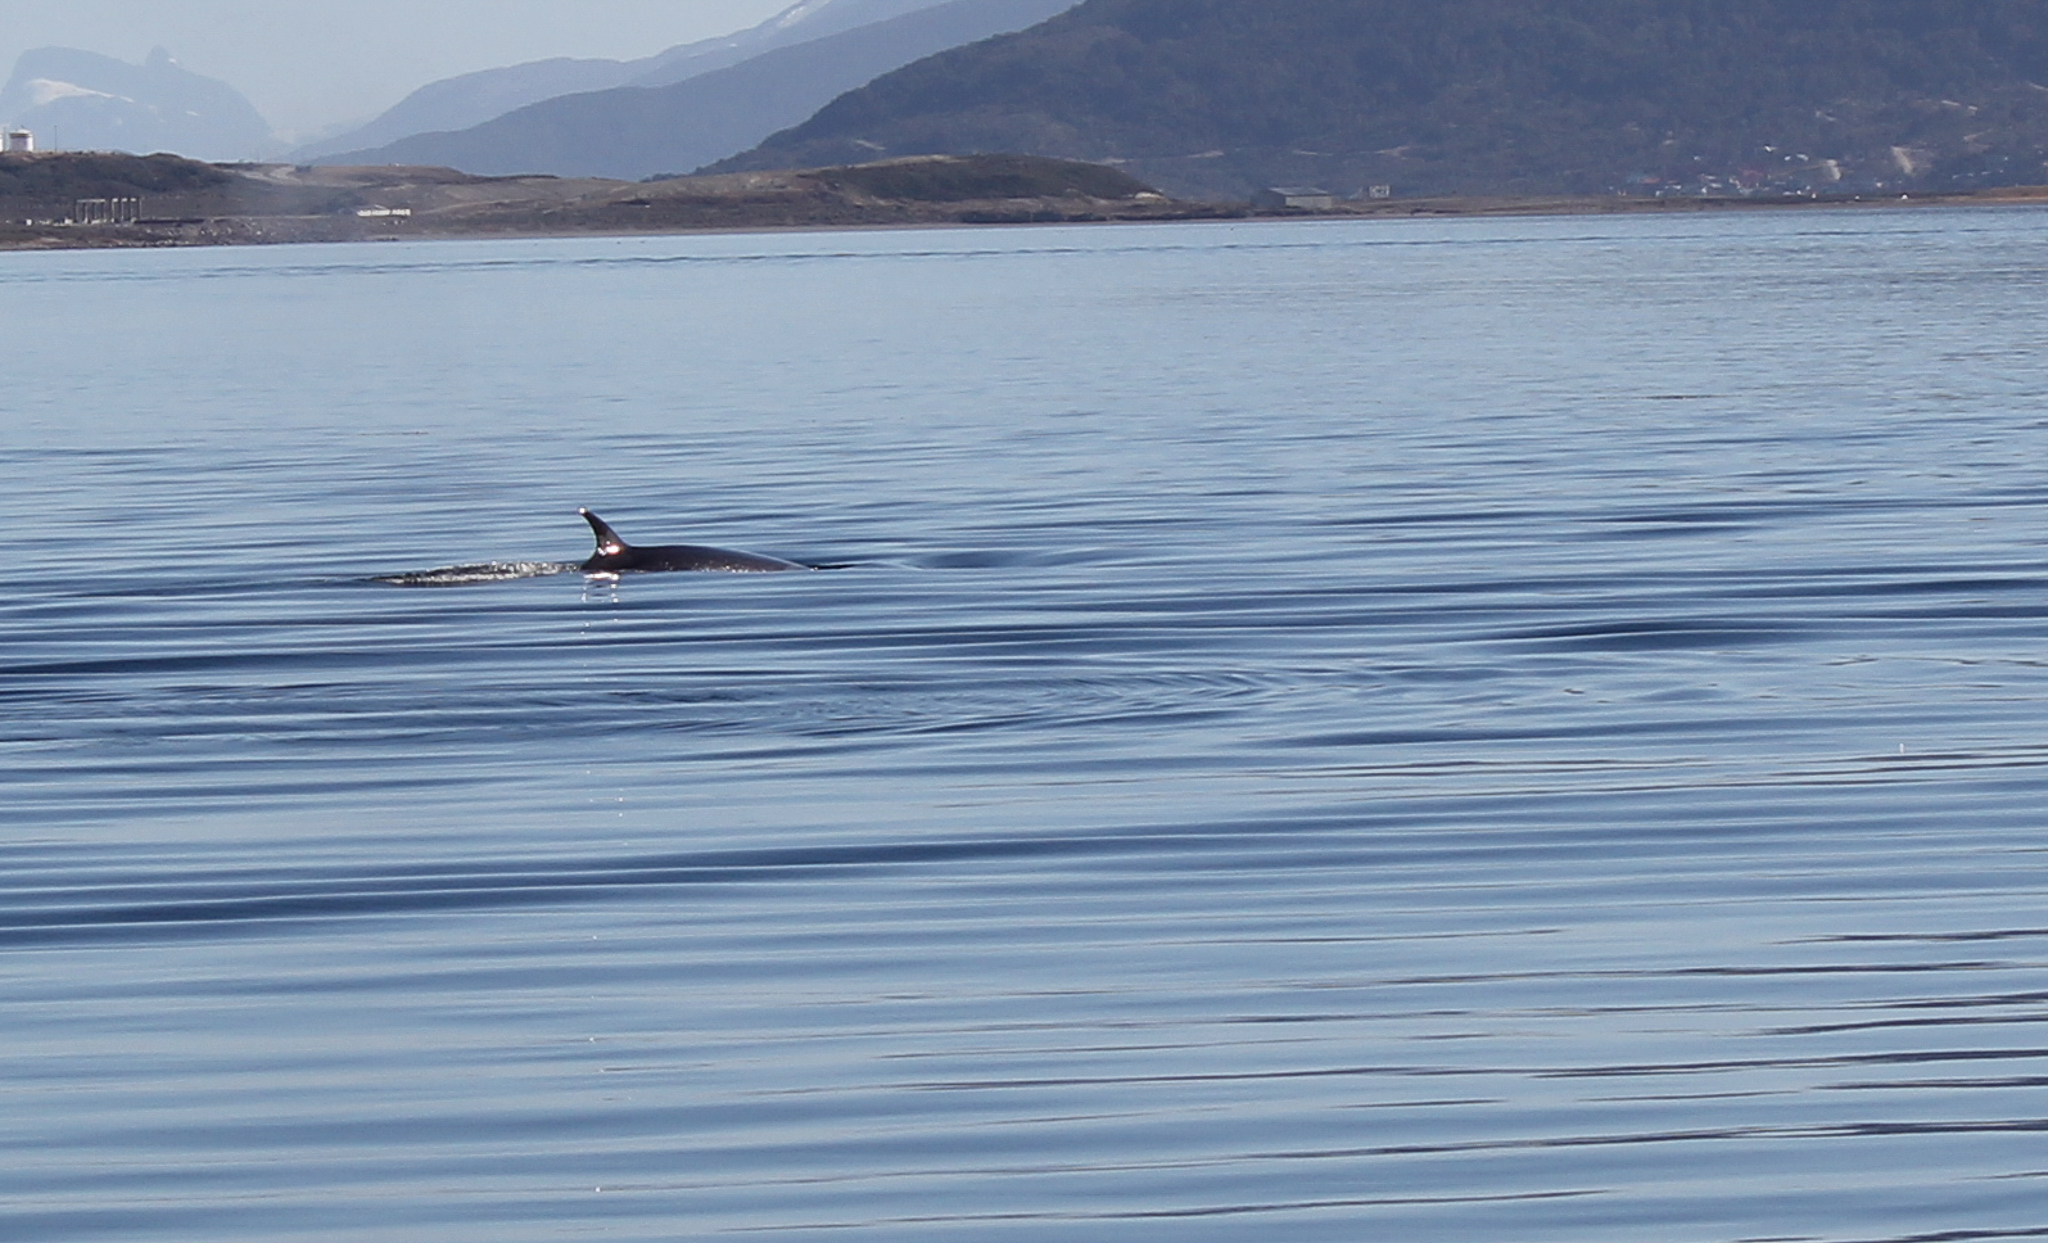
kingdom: Animalia
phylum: Chordata
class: Mammalia
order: Cetacea
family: Balaenopteridae
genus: Balaenoptera
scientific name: Balaenoptera borealis
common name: Sei whale
